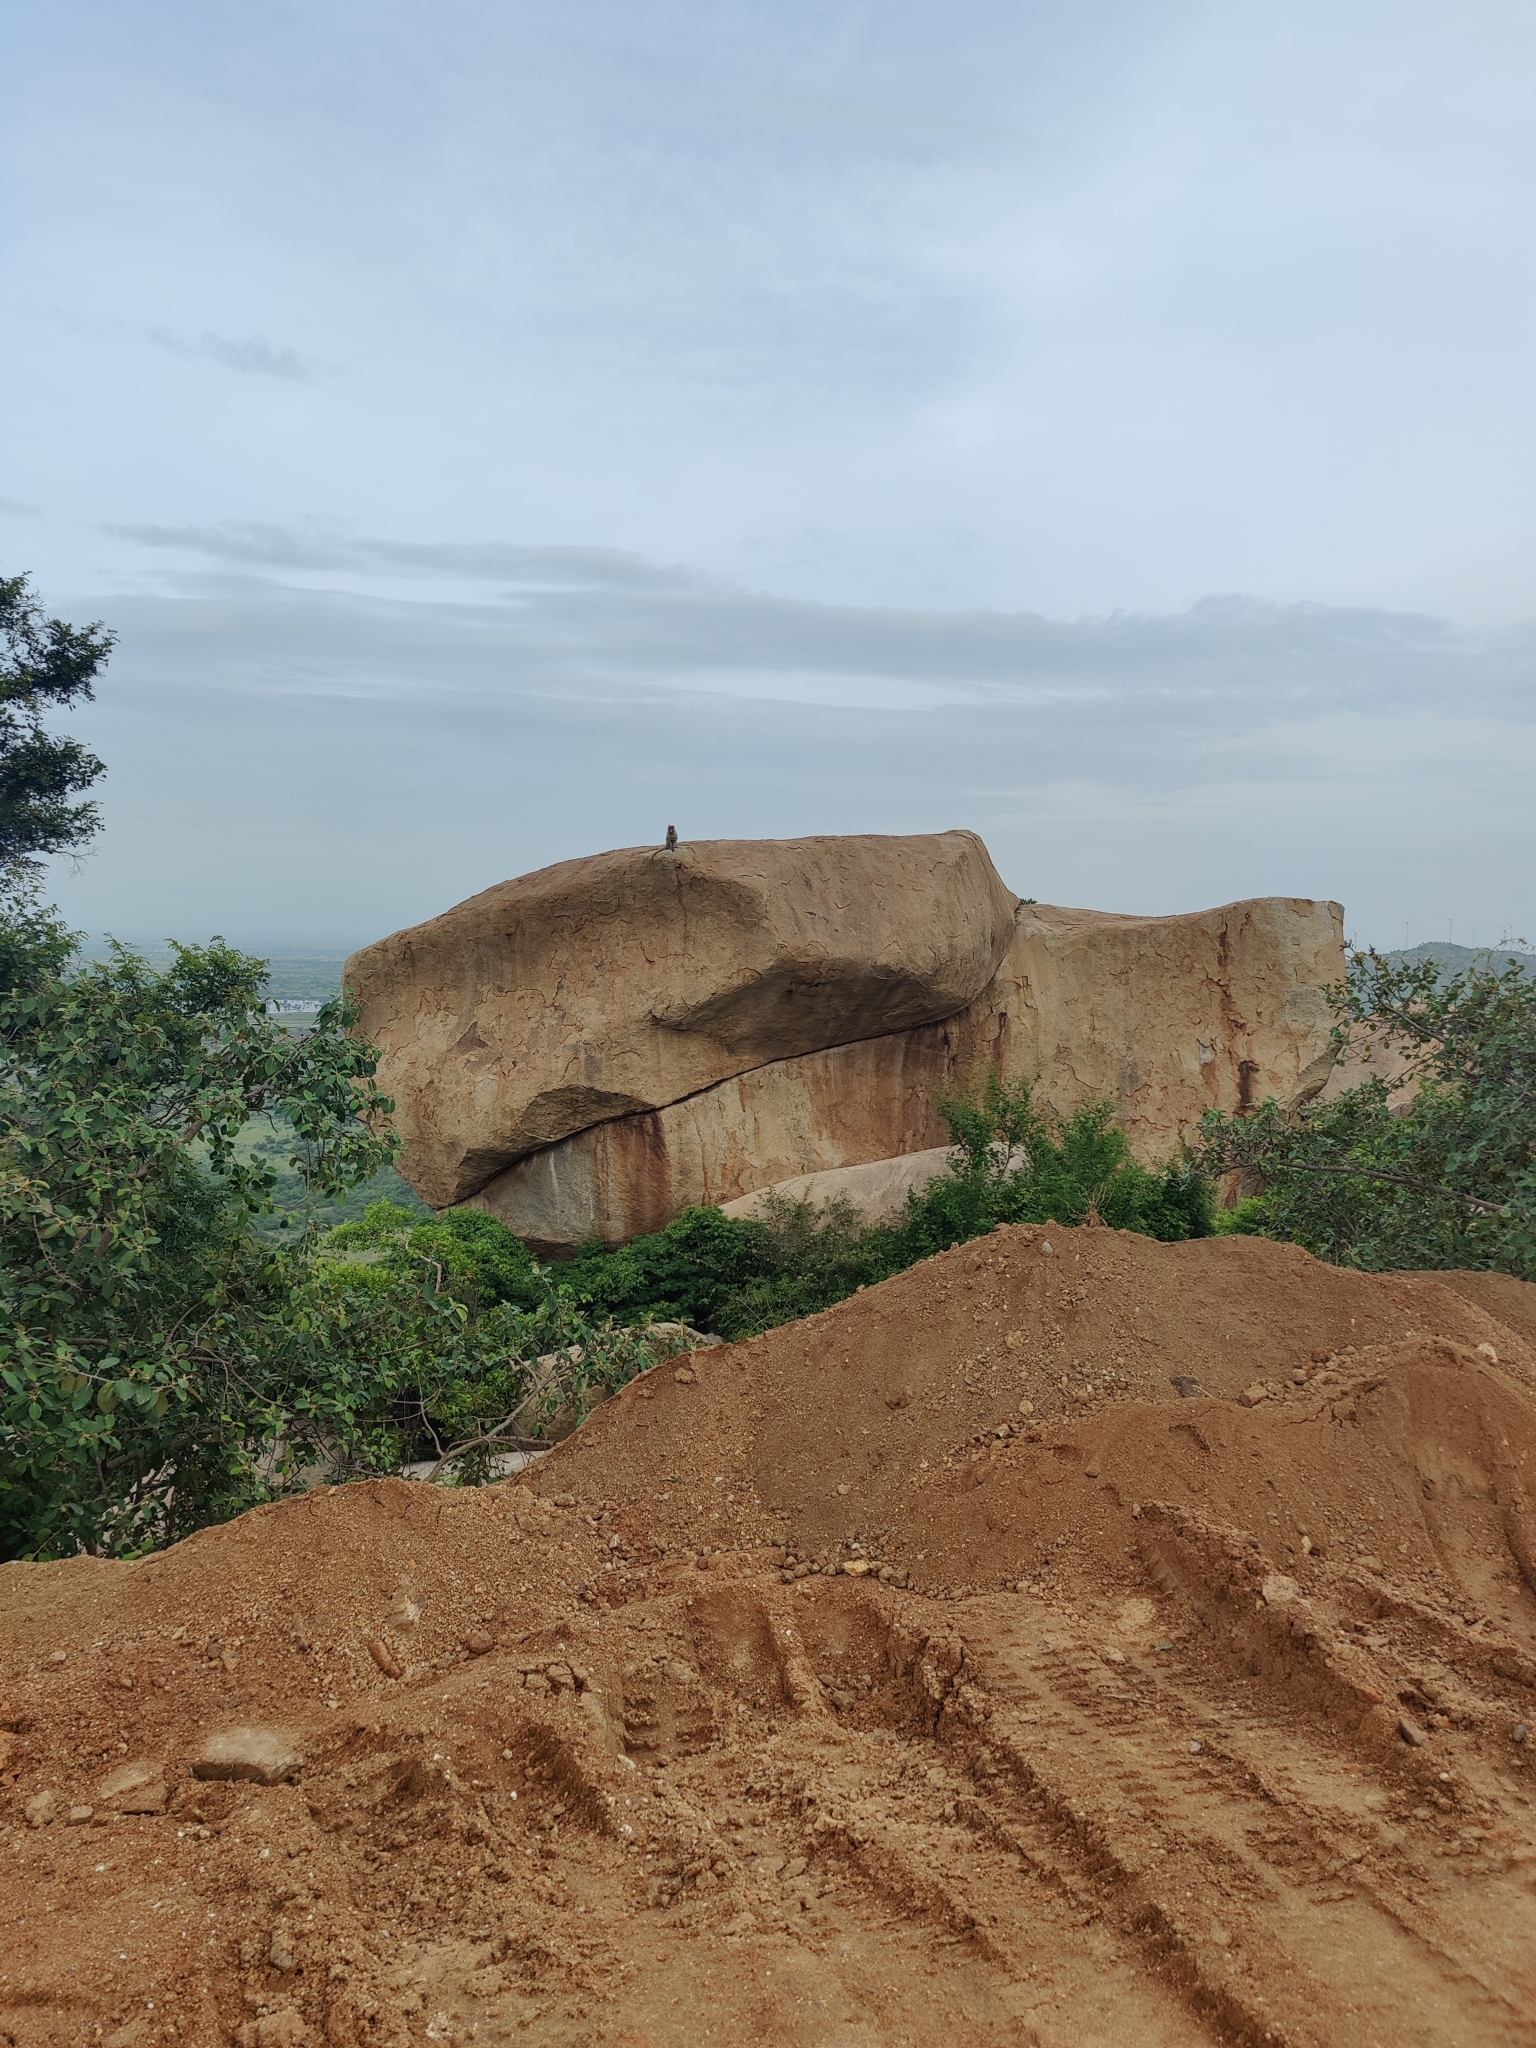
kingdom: Animalia
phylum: Chordata
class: Mammalia
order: Primates
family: Cercopithecidae
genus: Macaca
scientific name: Macaca radiata
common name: Bonnet macaque
